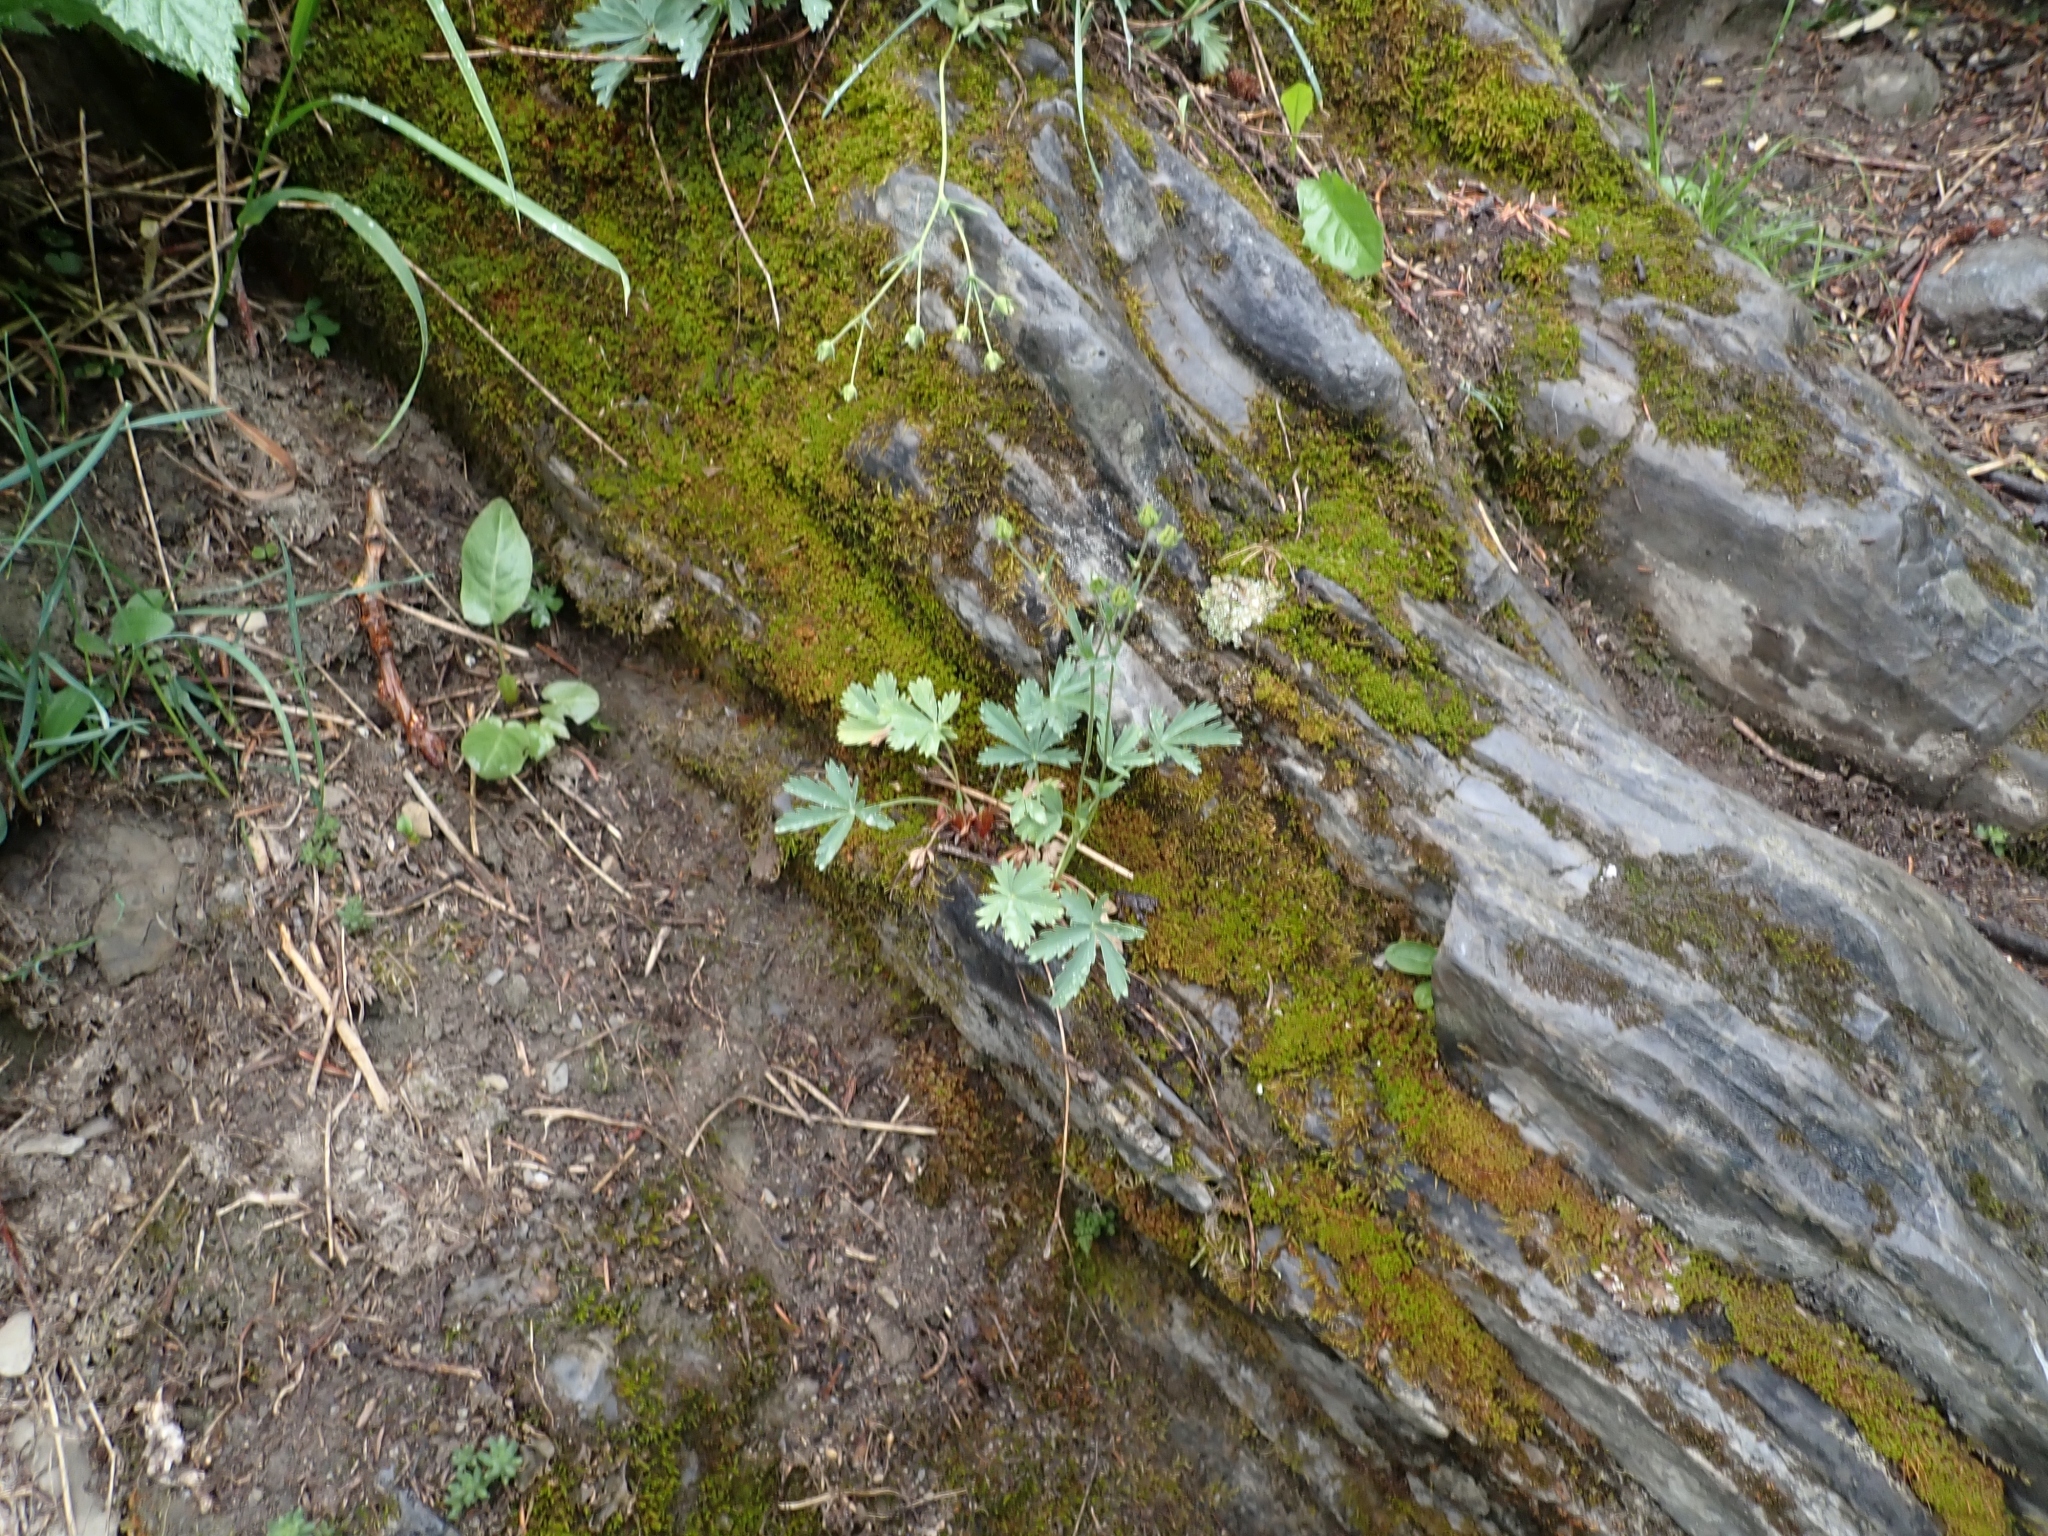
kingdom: Plantae
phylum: Tracheophyta
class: Magnoliopsida
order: Rosales
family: Rosaceae
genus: Potentilla
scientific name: Potentilla glaucophylla
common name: Blue-leaved cinquefoil
